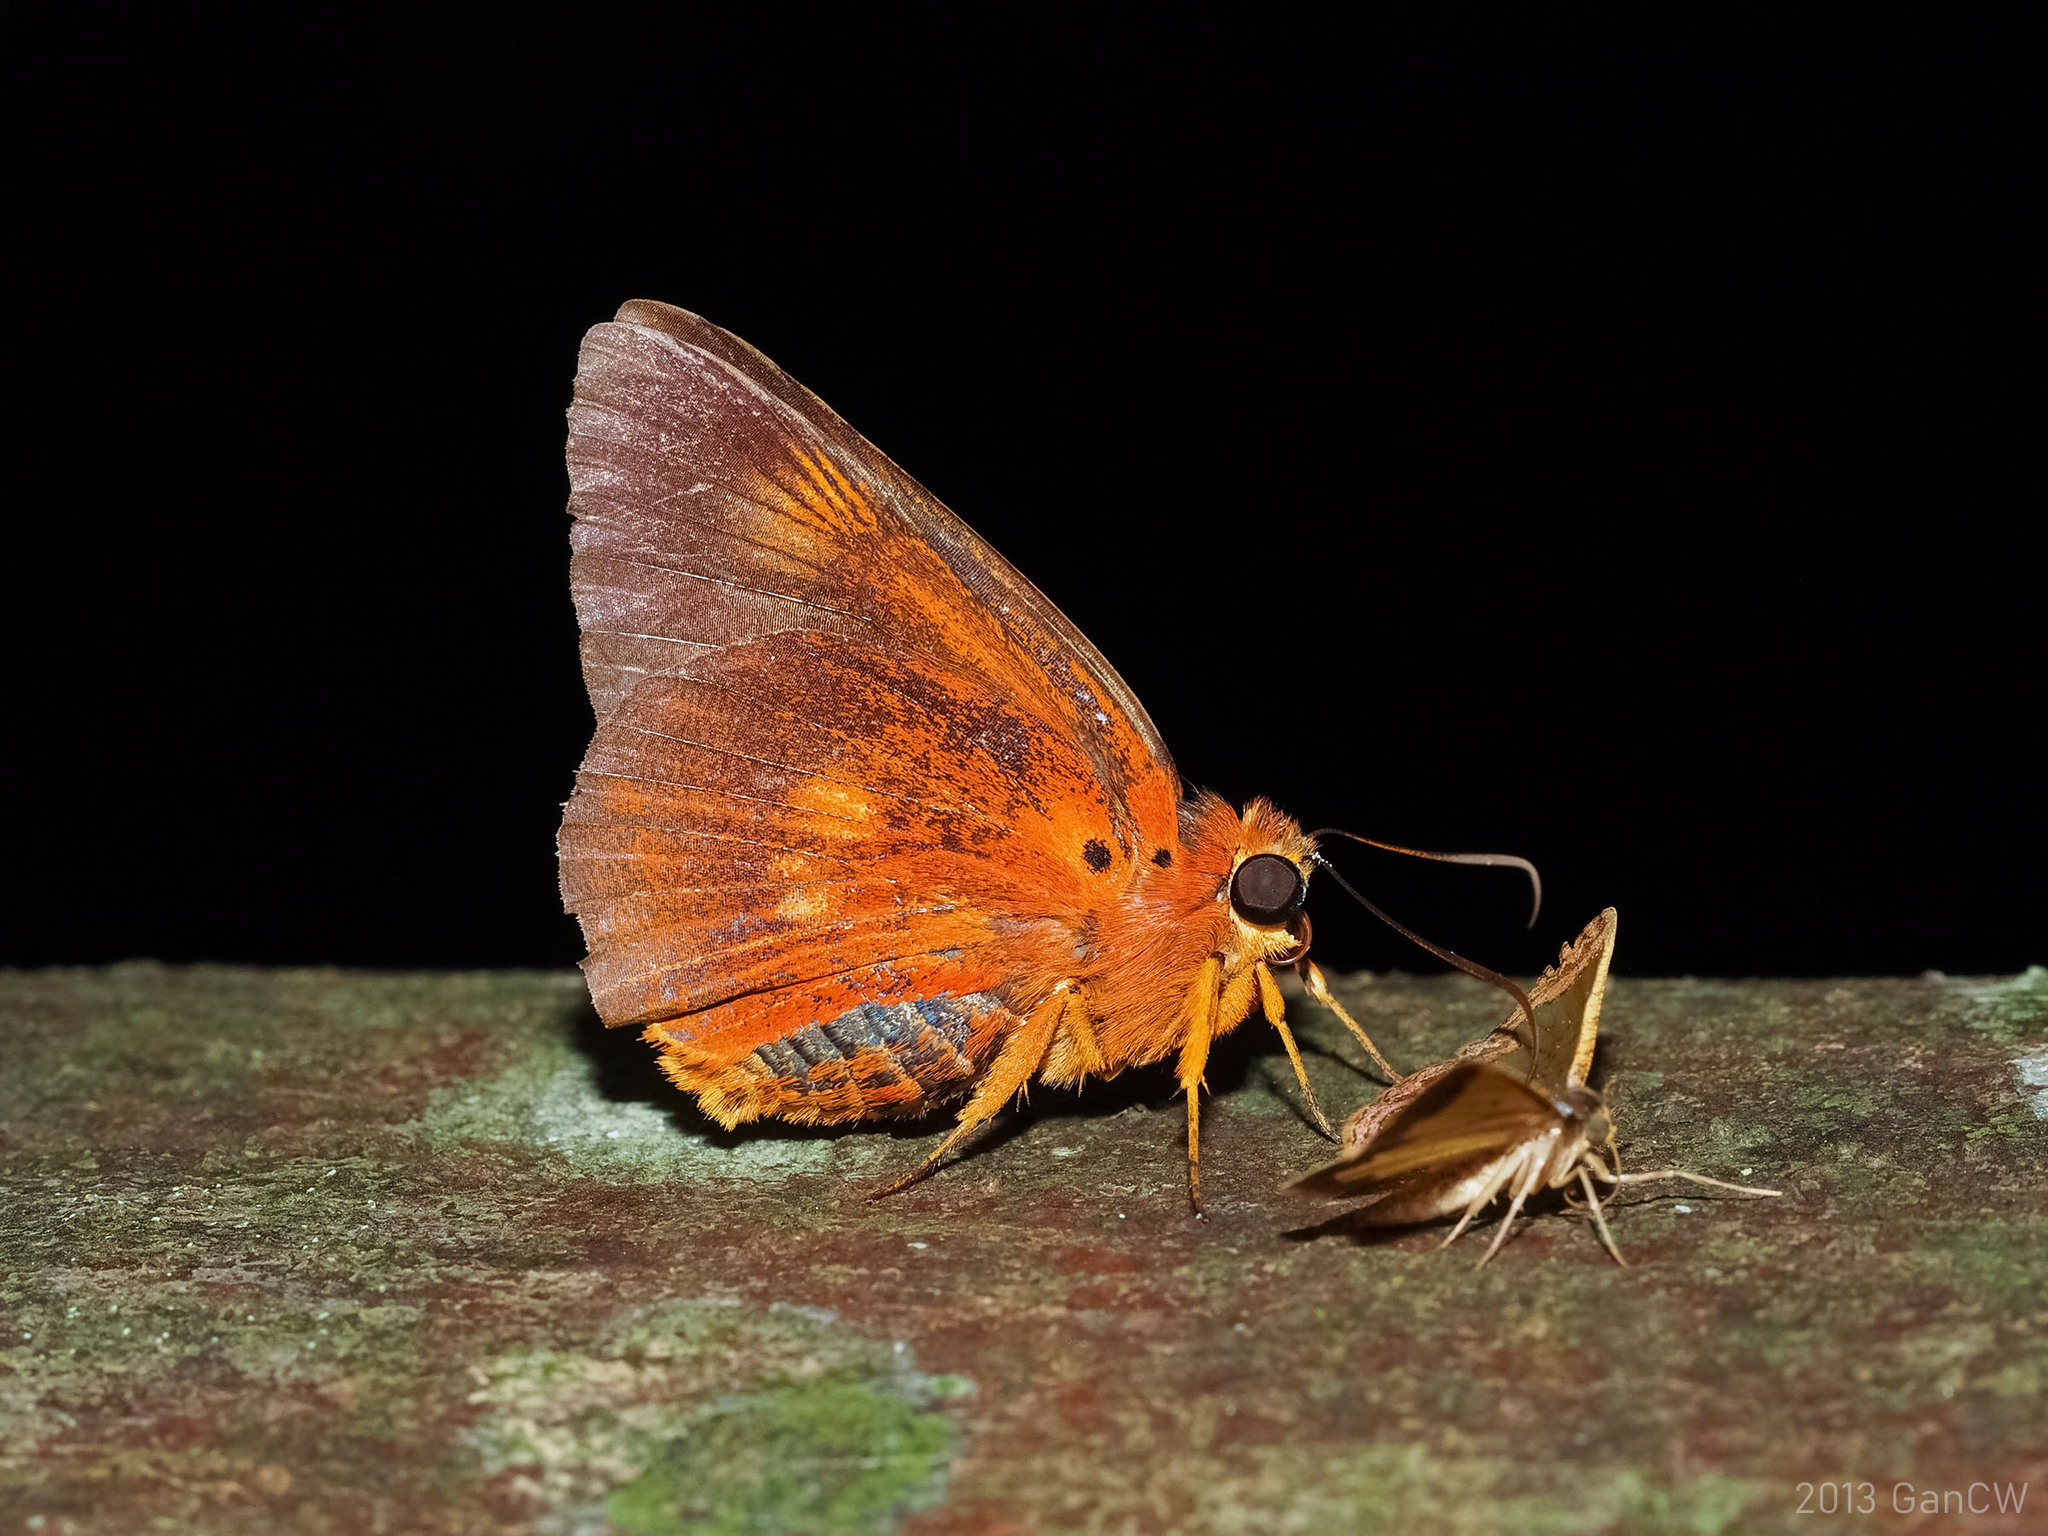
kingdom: Animalia
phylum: Arthropoda
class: Insecta
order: Lepidoptera
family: Hesperiidae
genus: Bibasis
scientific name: Bibasis etelka
